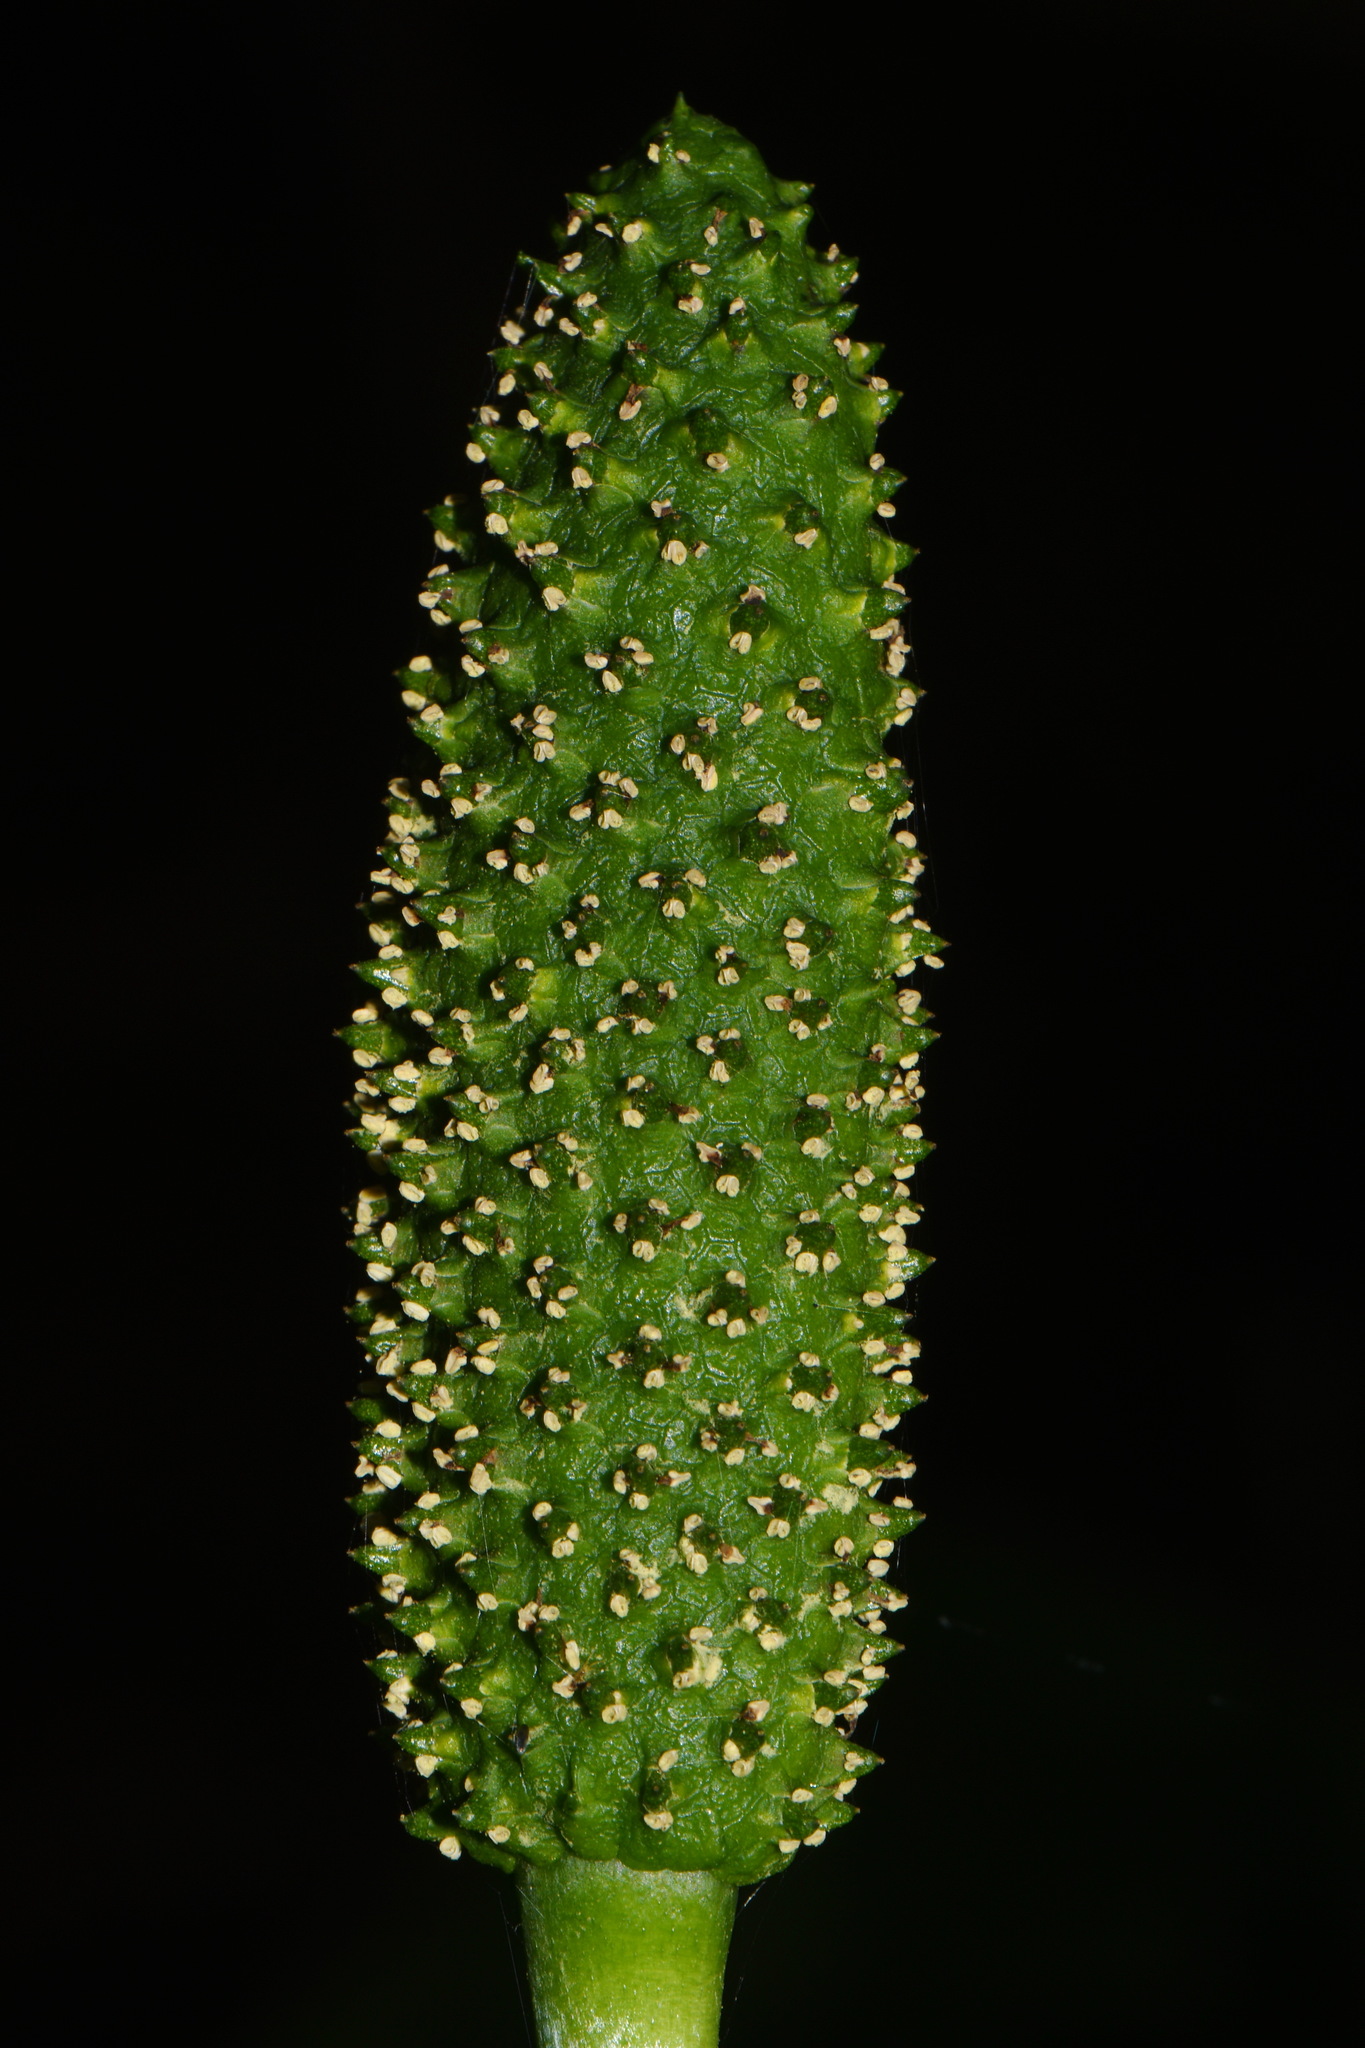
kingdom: Plantae
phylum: Tracheophyta
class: Liliopsida
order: Alismatales
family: Araceae
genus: Lysichiton
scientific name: Lysichiton americanus
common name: American skunk cabbage
